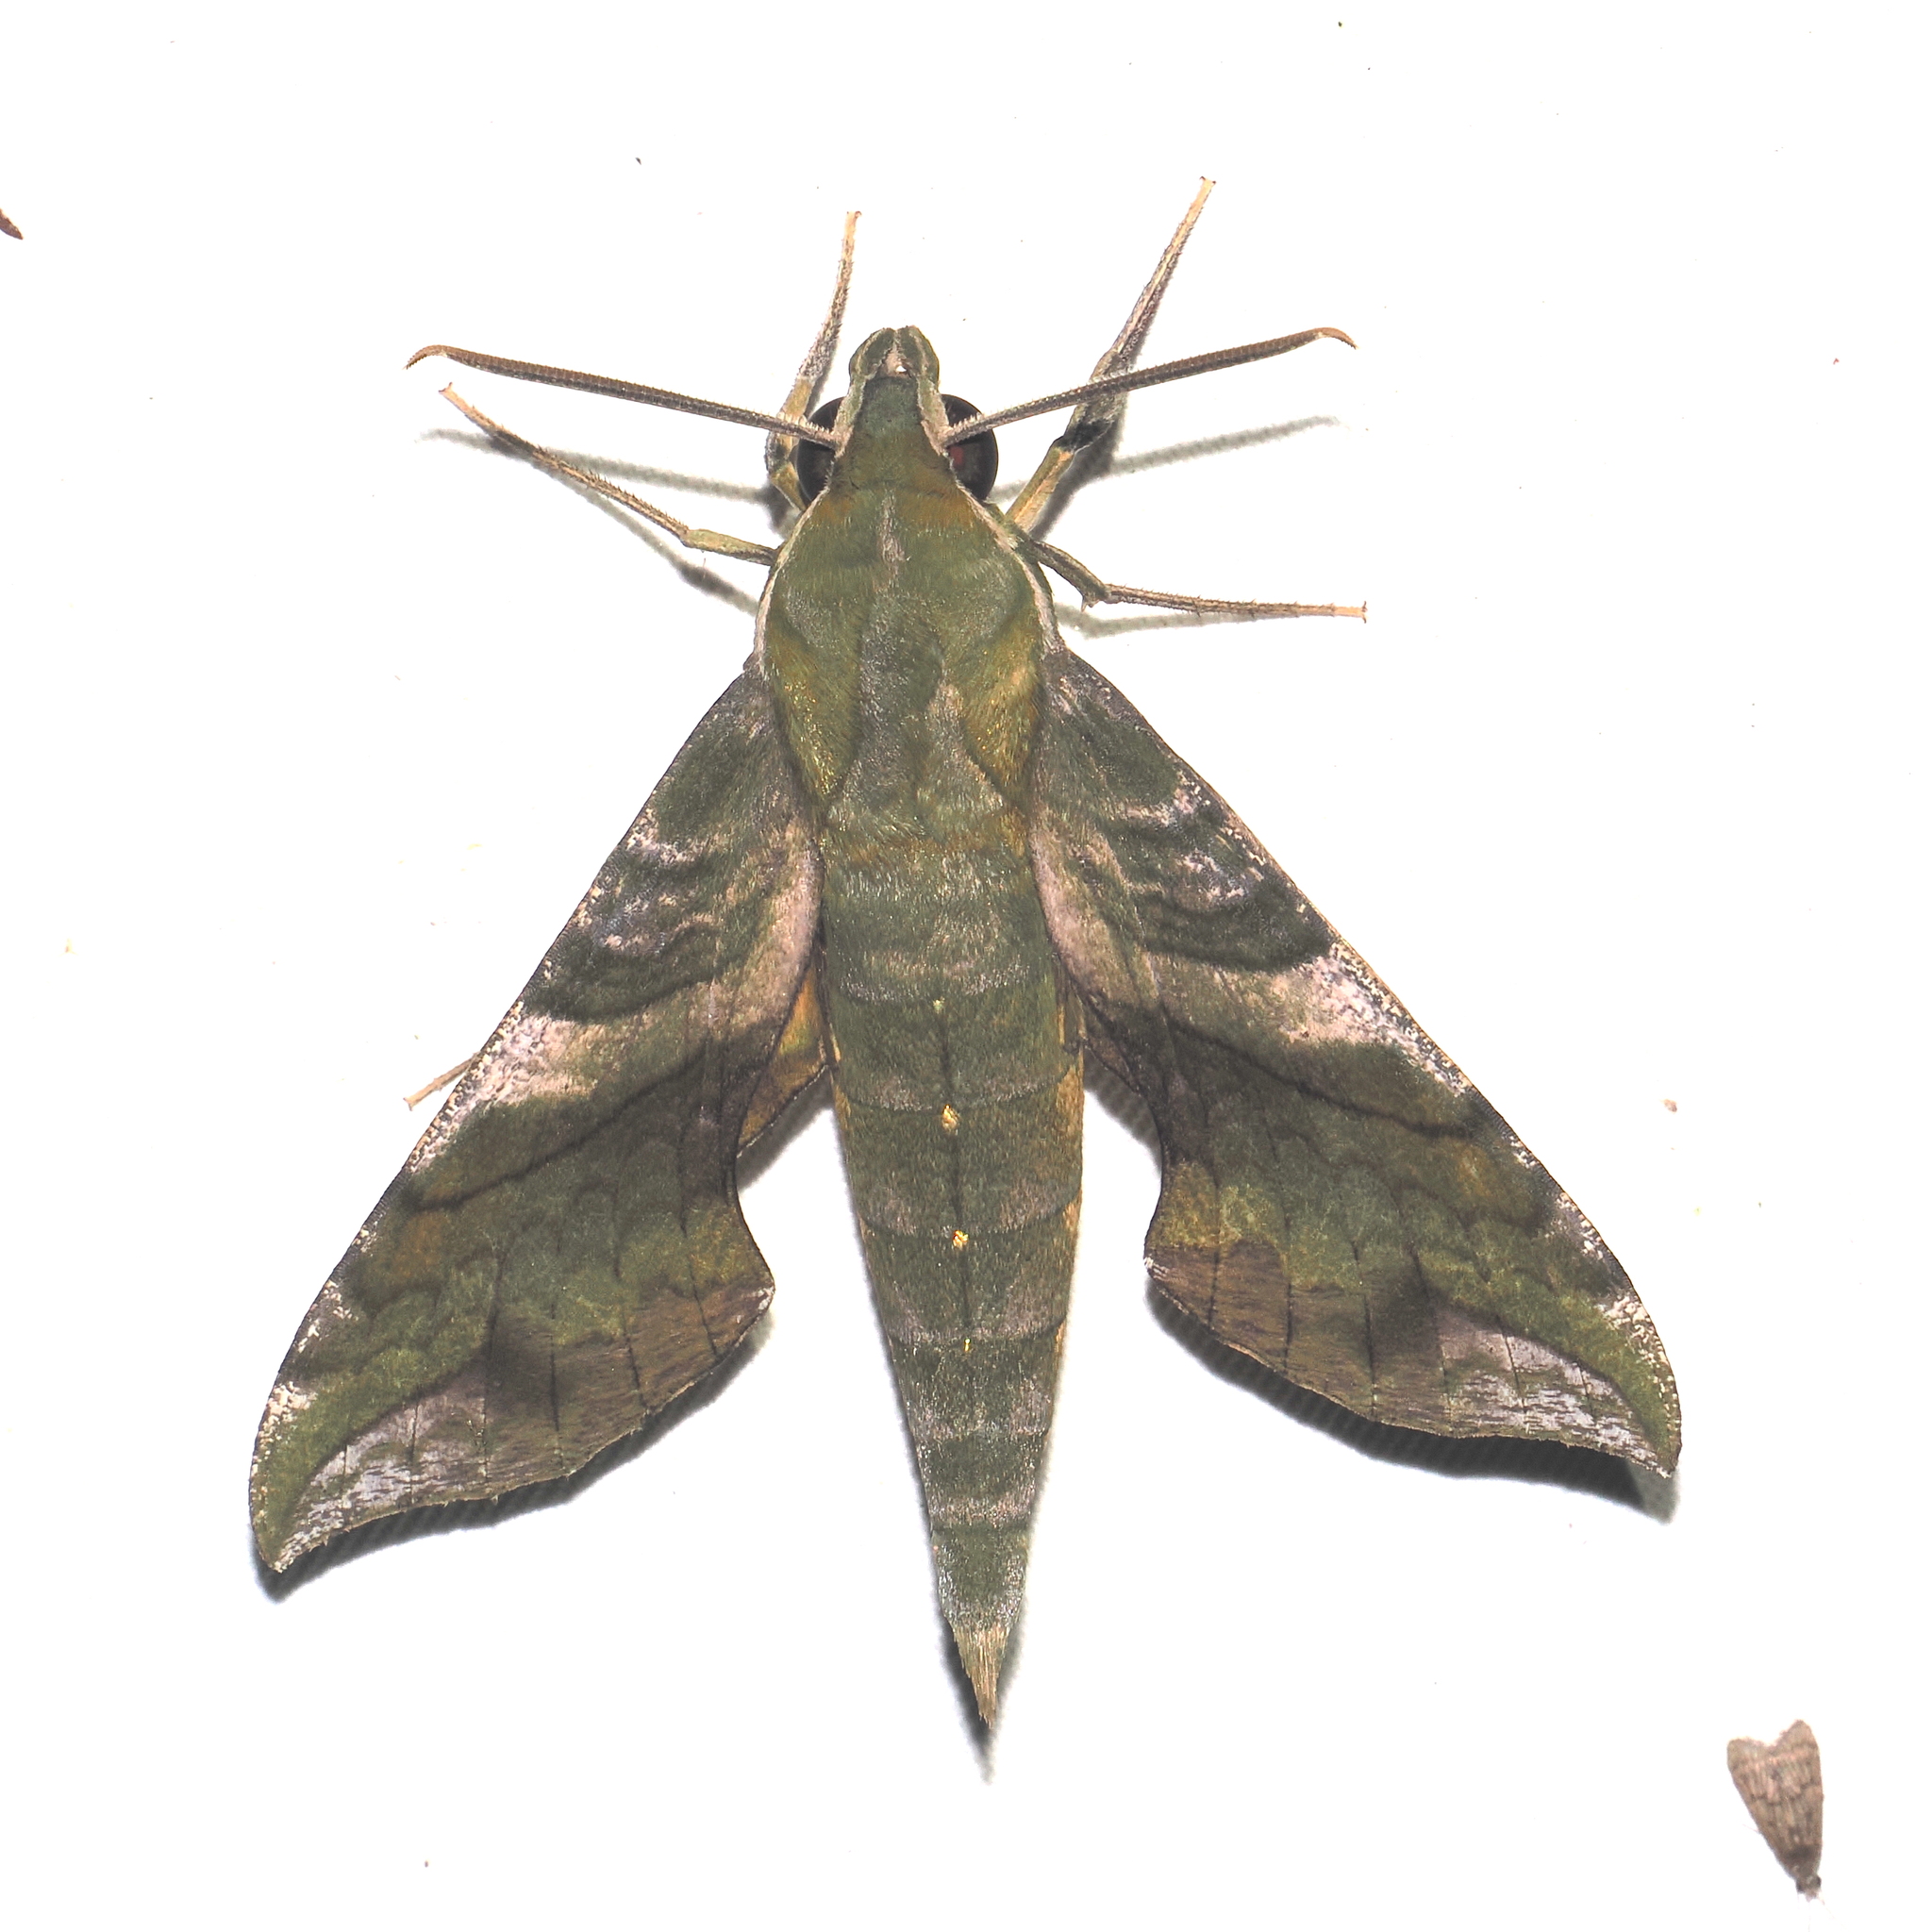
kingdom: Animalia
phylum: Arthropoda
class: Insecta
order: Lepidoptera
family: Sphingidae
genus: Xylophanes
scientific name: Xylophanes pluto
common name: Pluto sphinx
